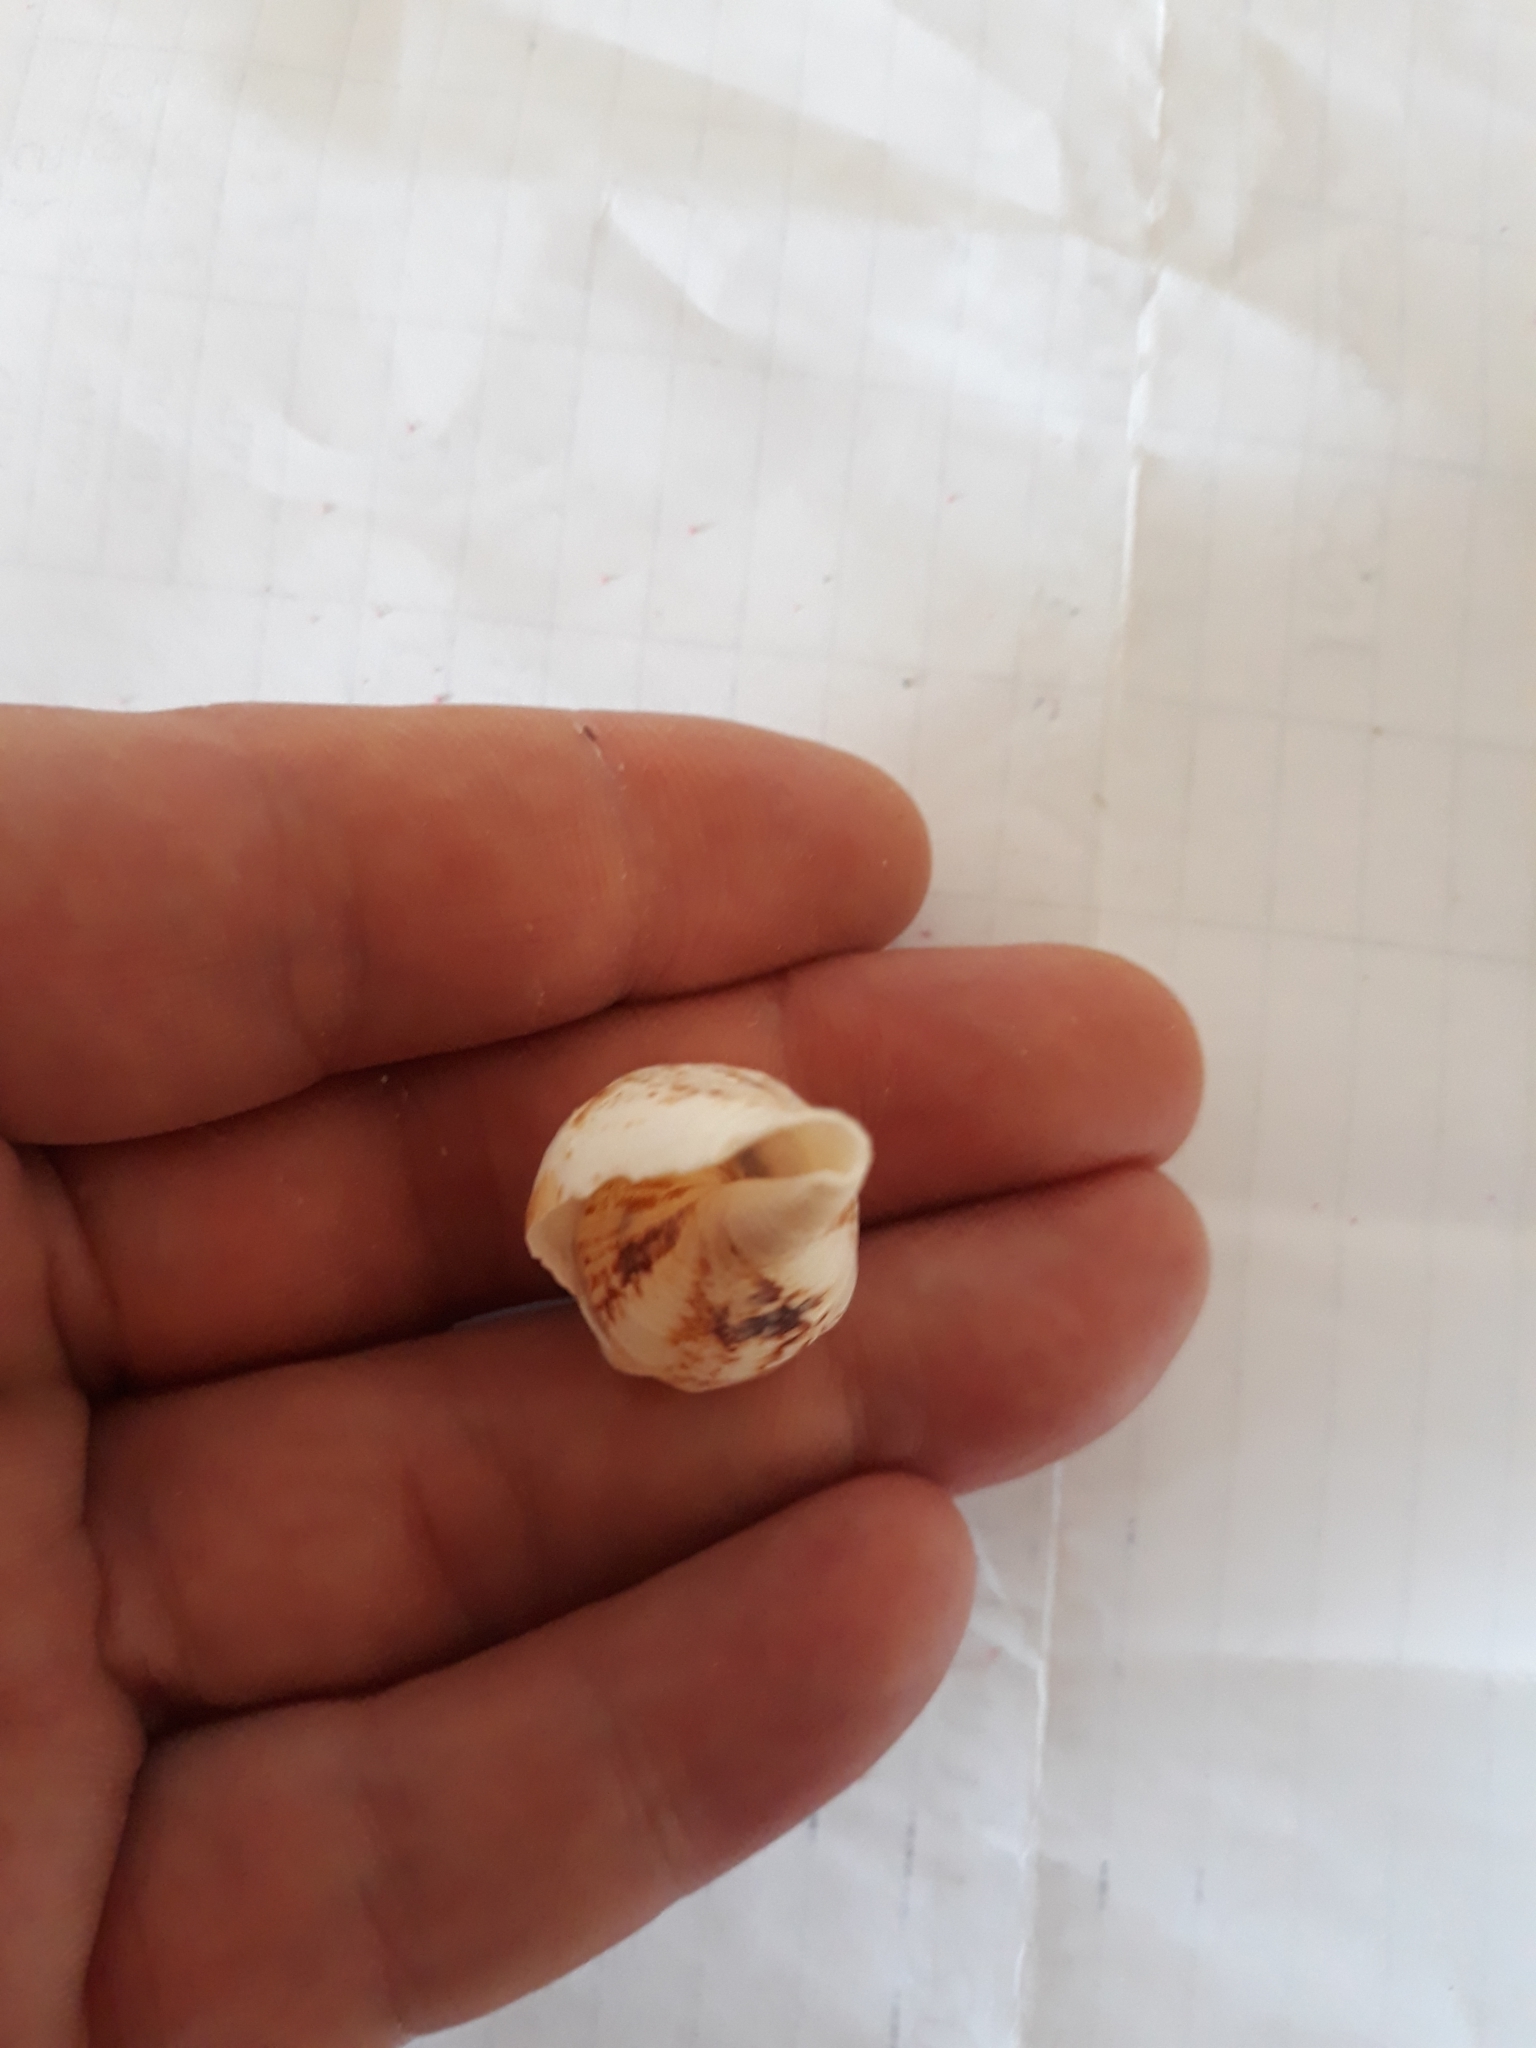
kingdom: Animalia
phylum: Mollusca
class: Gastropoda
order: Littorinimorpha
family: Strombidae
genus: Canarium
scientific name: Canarium urceus
